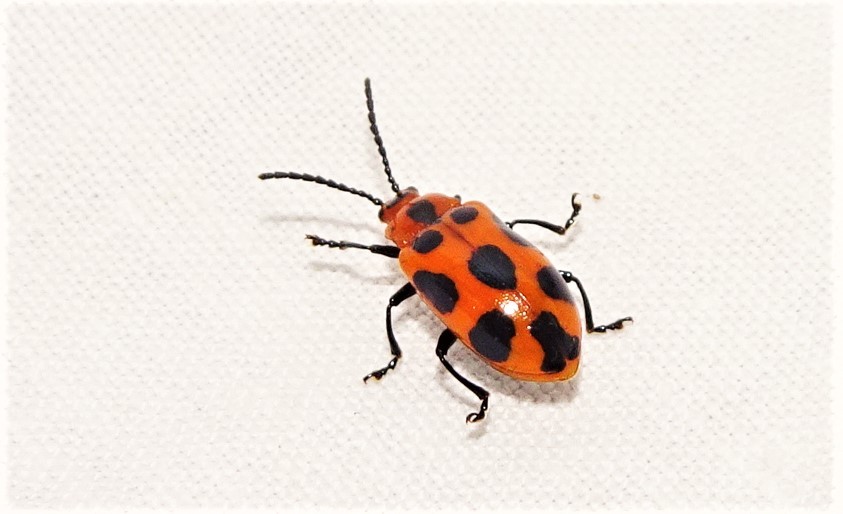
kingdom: Animalia
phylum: Arthropoda
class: Insecta
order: Coleoptera
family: Chrysomelidae
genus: Phyllocharis
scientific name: Phyllocharis
